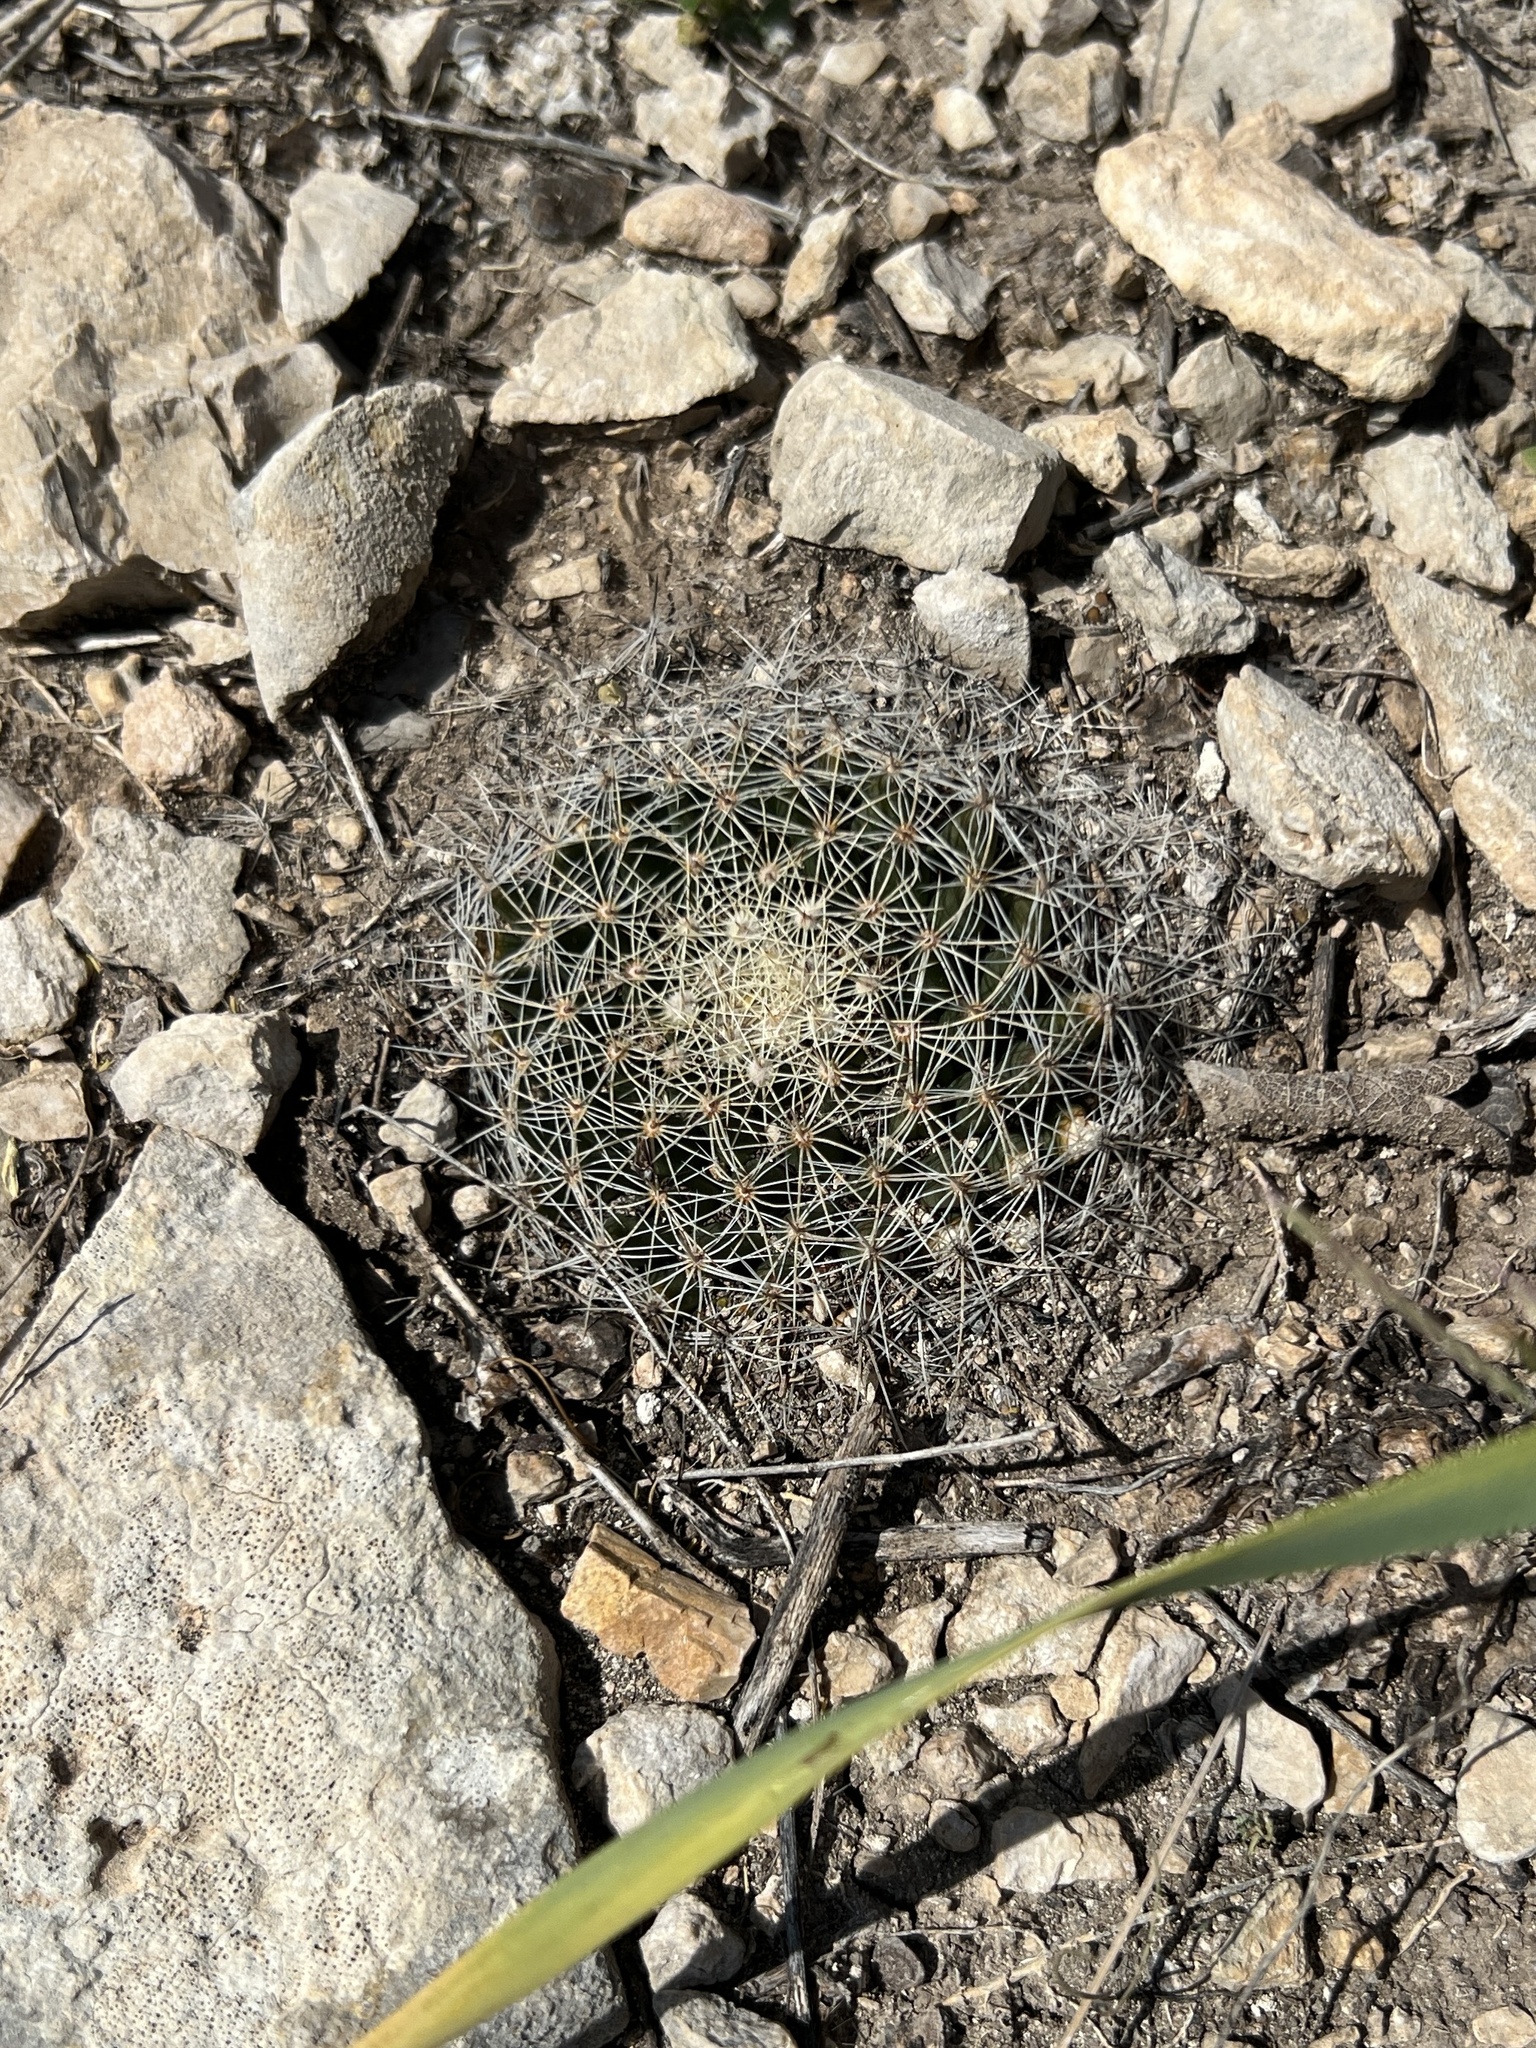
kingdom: Plantae
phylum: Tracheophyta
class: Magnoliopsida
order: Caryophyllales
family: Cactaceae
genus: Mammillaria
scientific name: Mammillaria heyderi
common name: Little nipple cactus
